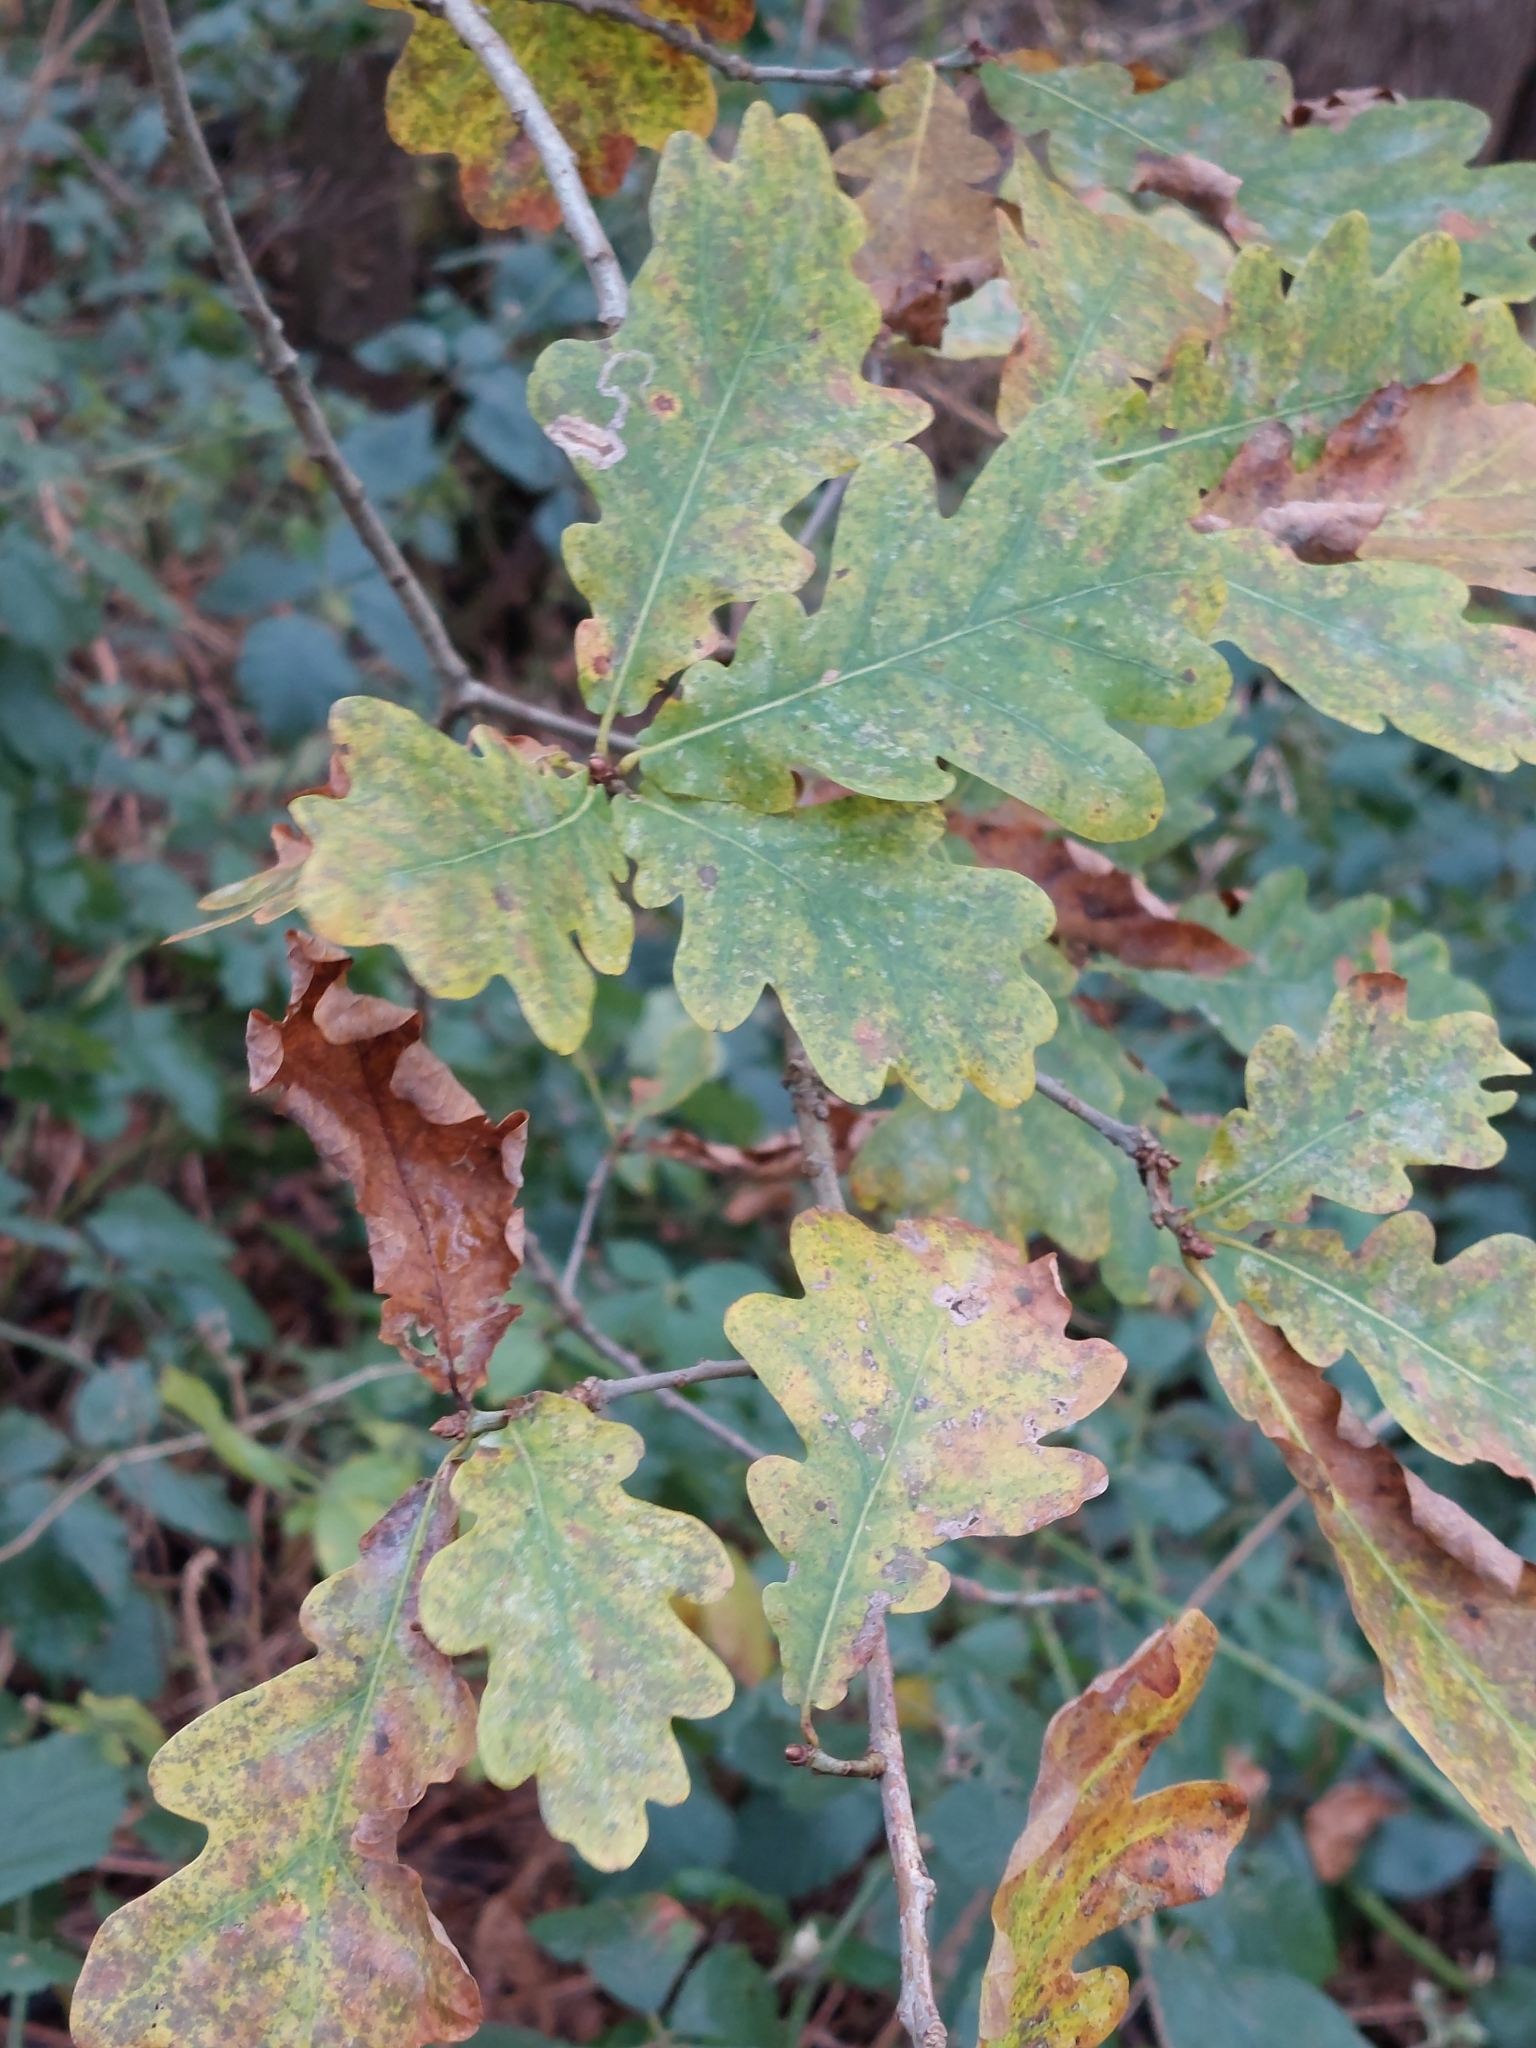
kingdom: Plantae
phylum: Tracheophyta
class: Magnoliopsida
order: Fagales
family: Fagaceae
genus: Quercus
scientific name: Quercus robur
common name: Pedunculate oak
